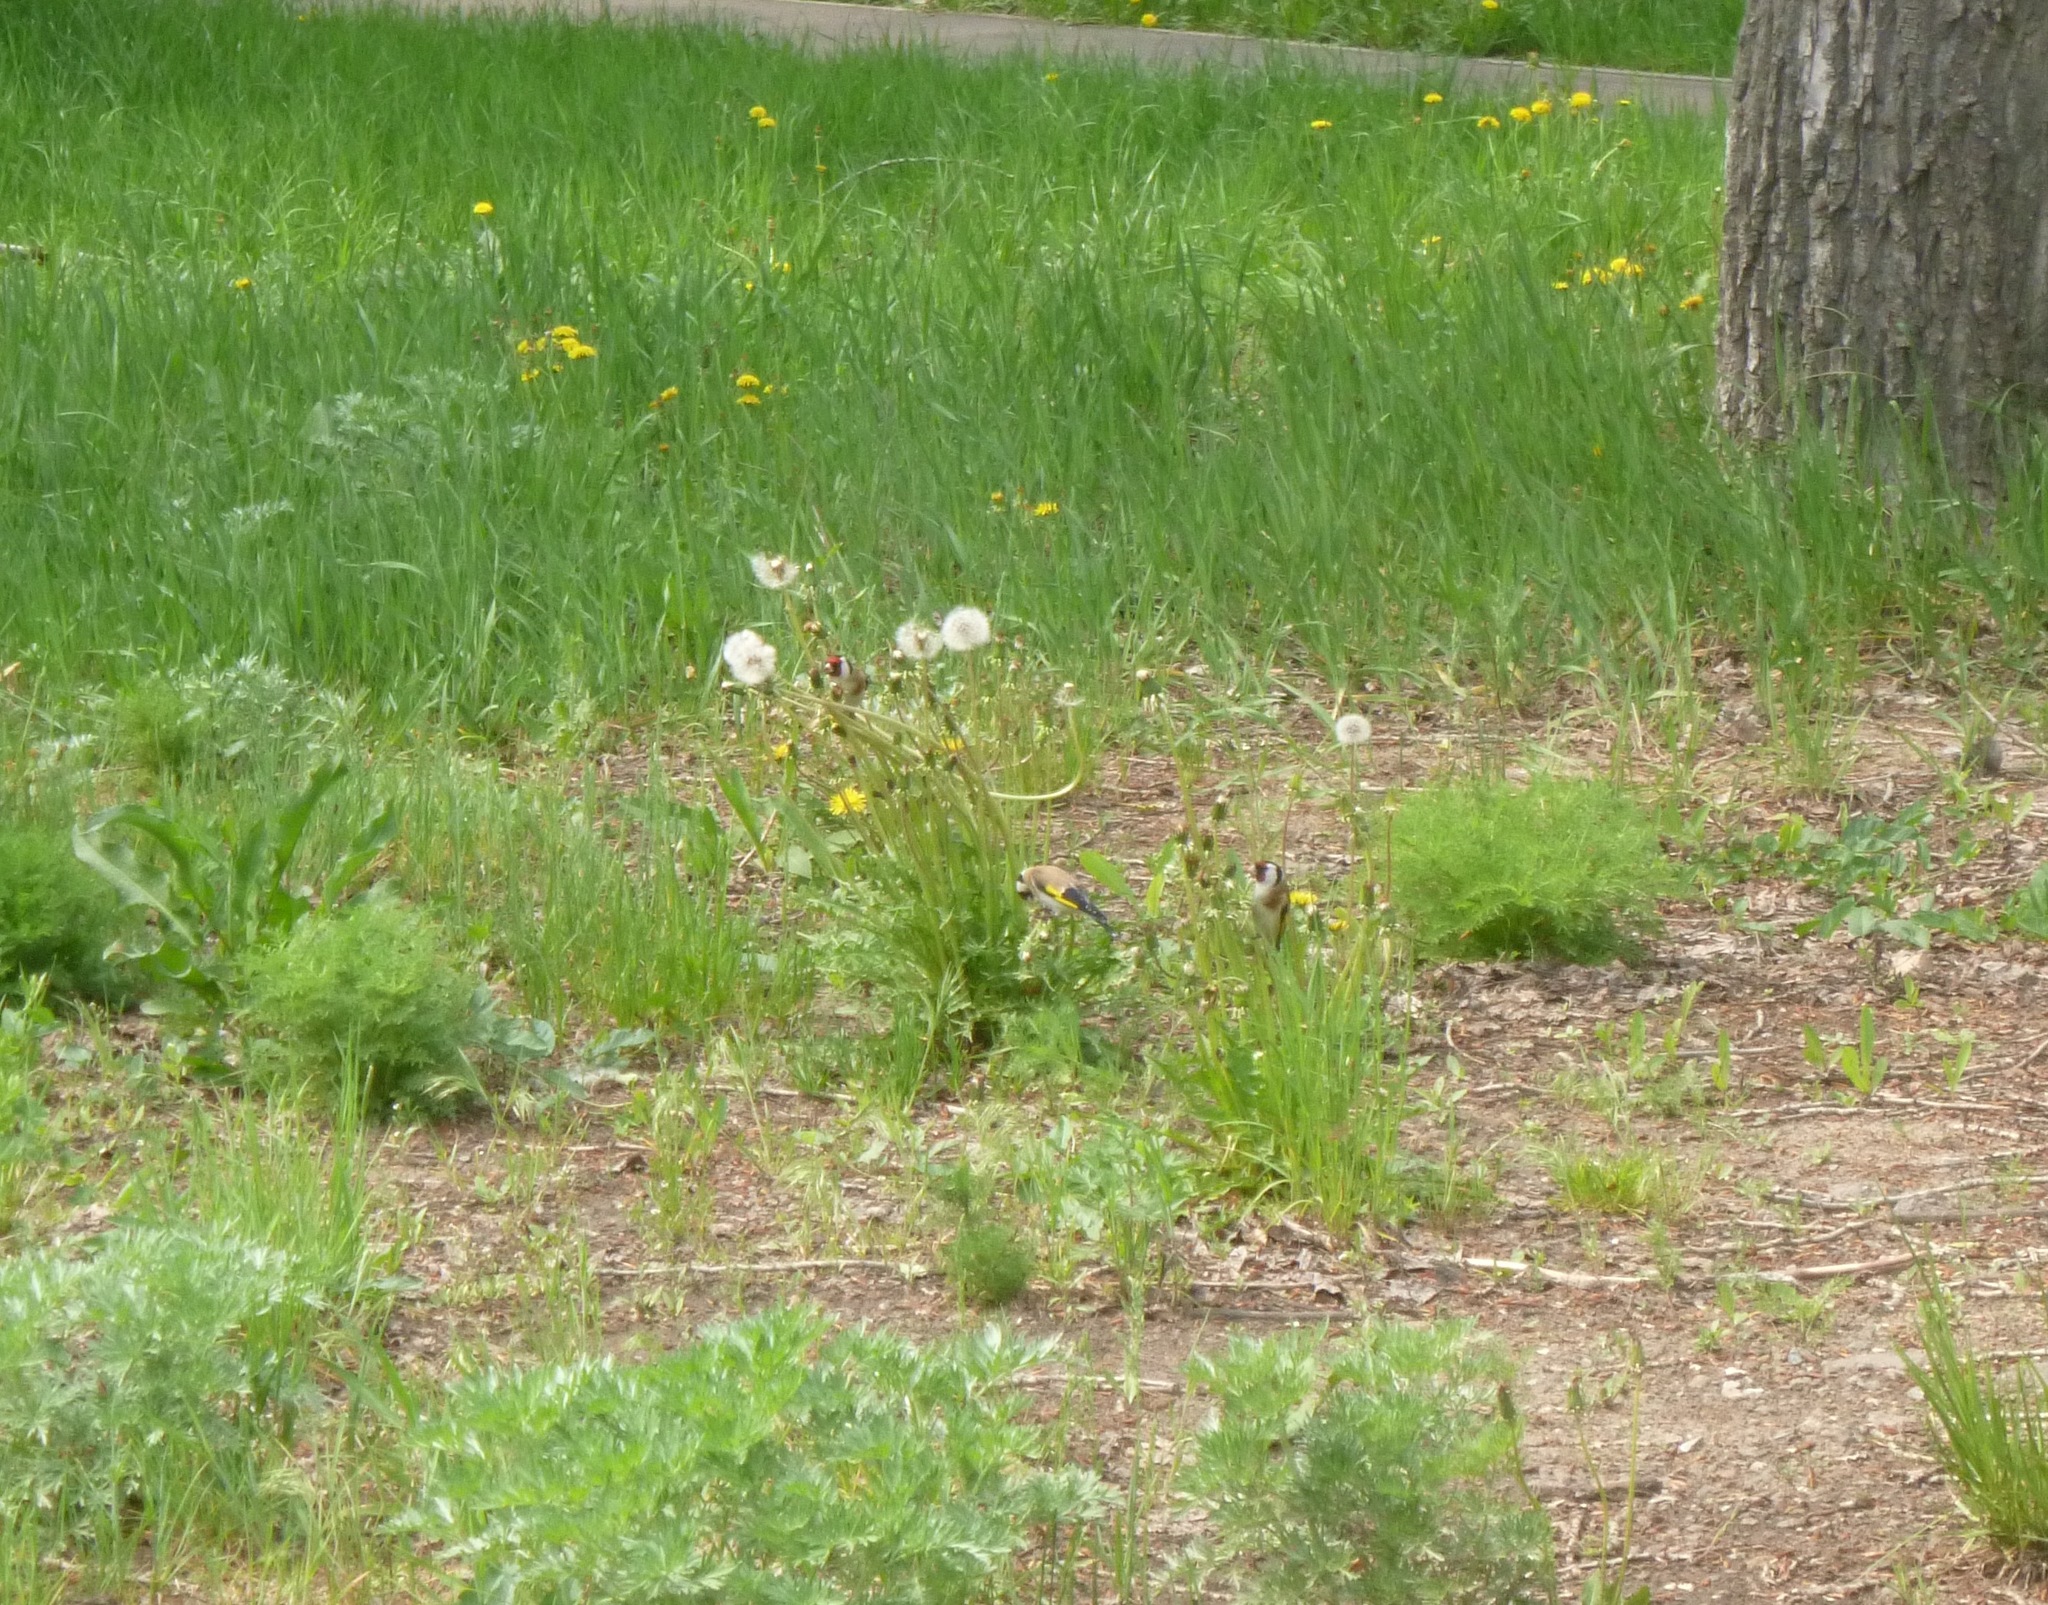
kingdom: Animalia
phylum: Chordata
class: Aves
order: Passeriformes
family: Fringillidae
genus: Carduelis
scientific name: Carduelis carduelis
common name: European goldfinch
